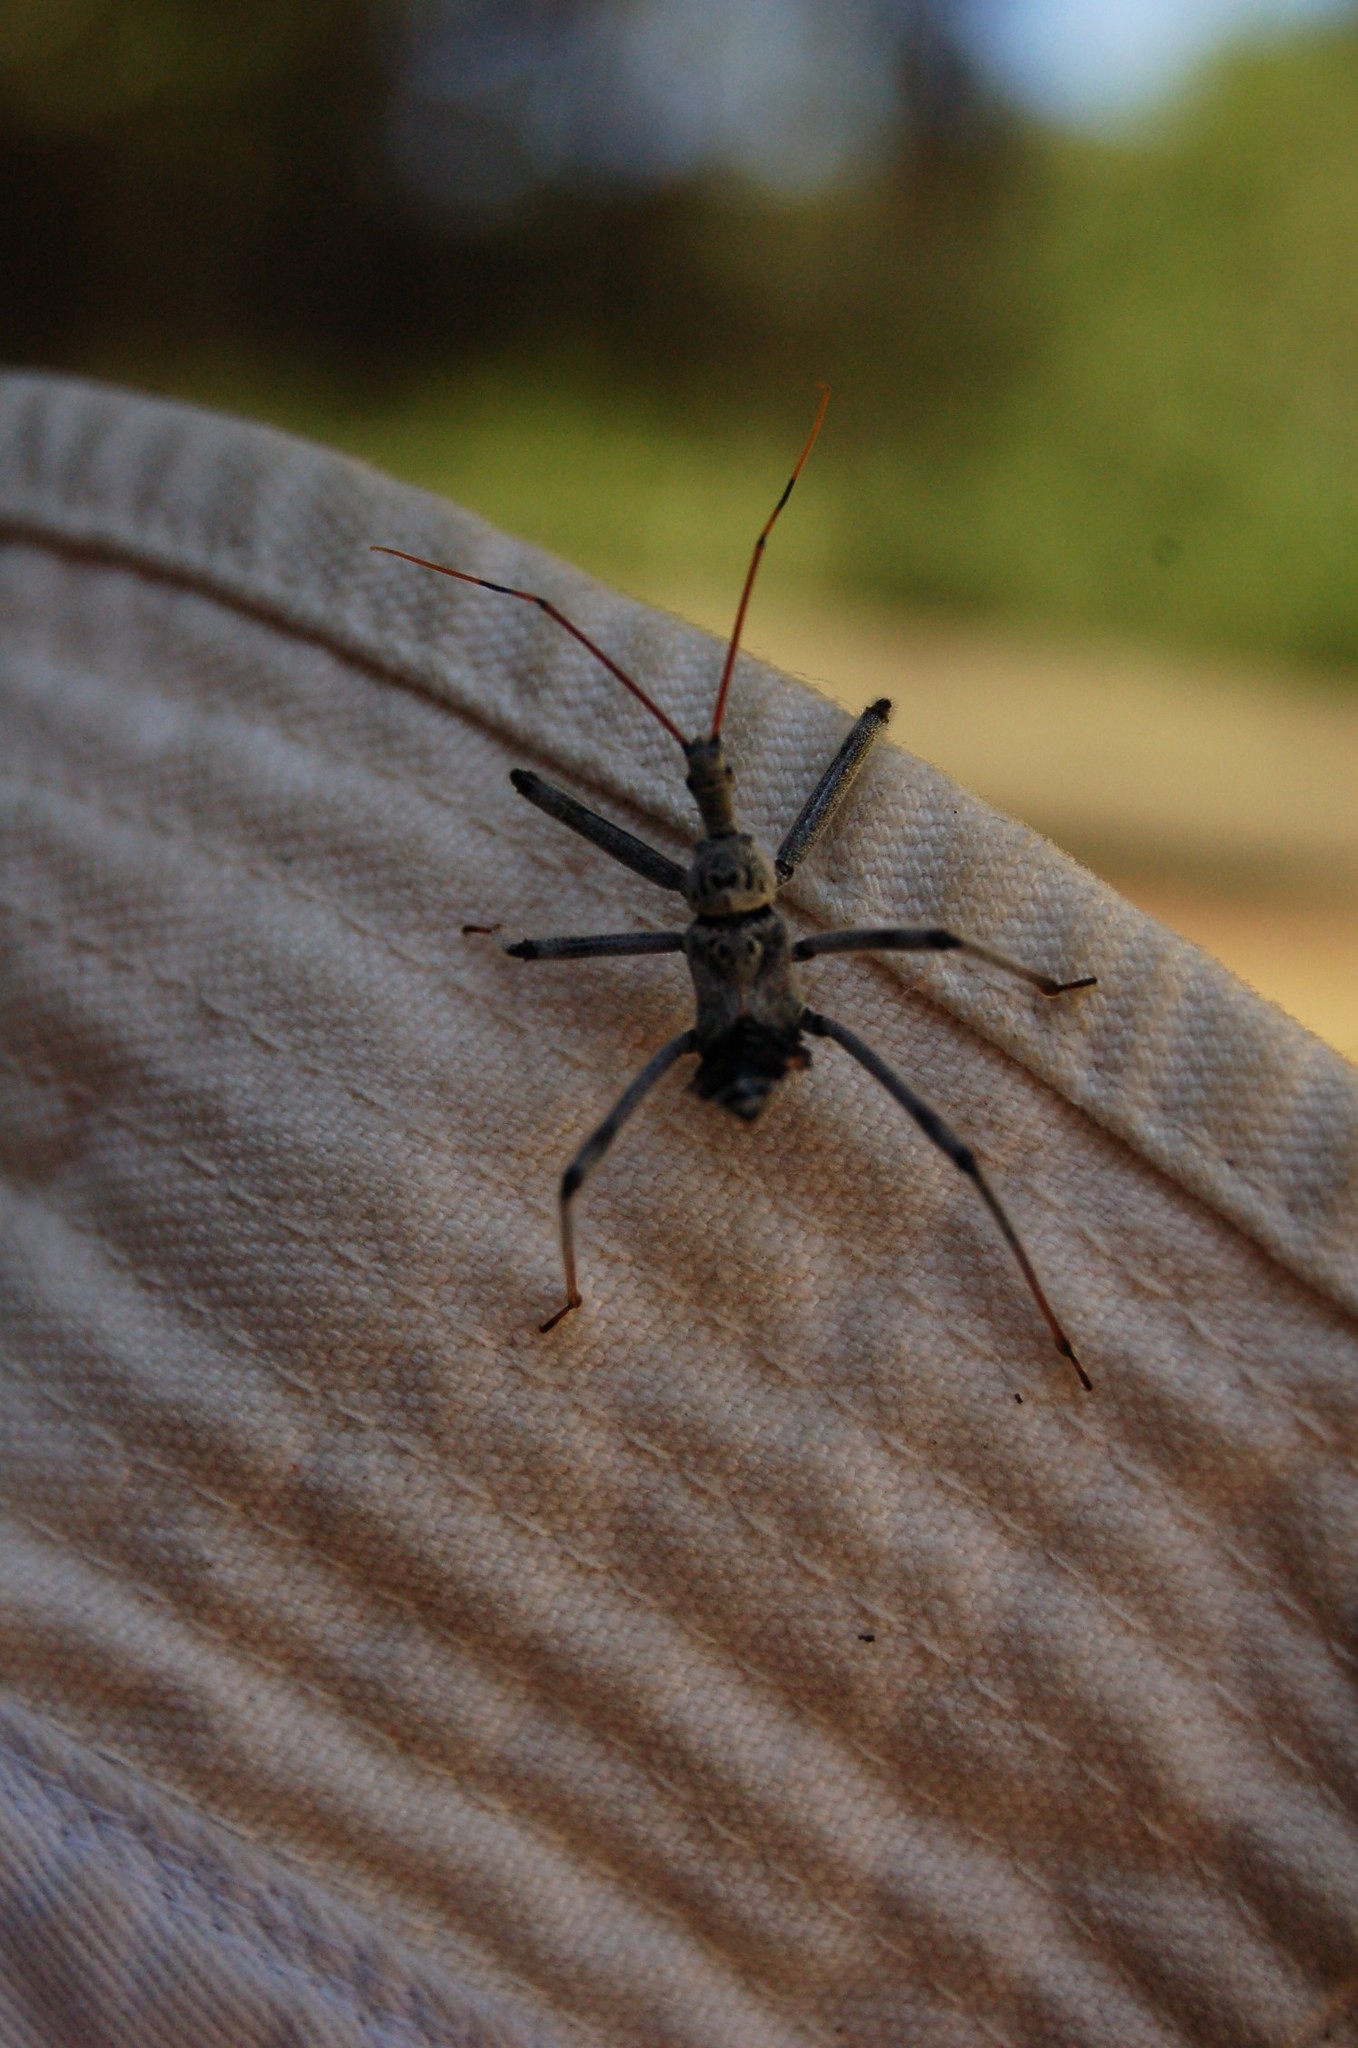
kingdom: Animalia
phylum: Arthropoda
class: Insecta
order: Hemiptera
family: Reduviidae
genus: Arilus
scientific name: Arilus cristatus
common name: North american wheel bug
